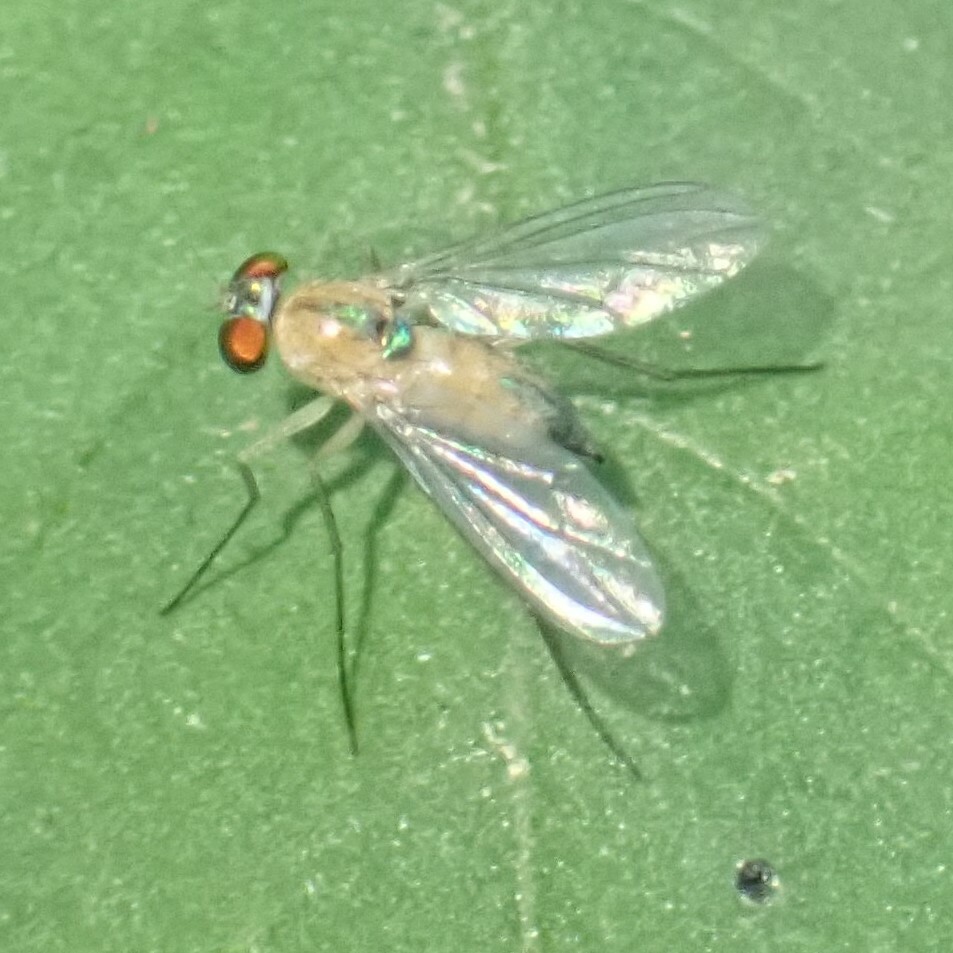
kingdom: Animalia
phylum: Arthropoda
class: Insecta
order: Diptera
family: Dolichopodidae
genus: Amblypsilopus
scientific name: Amblypsilopus dorsalis
